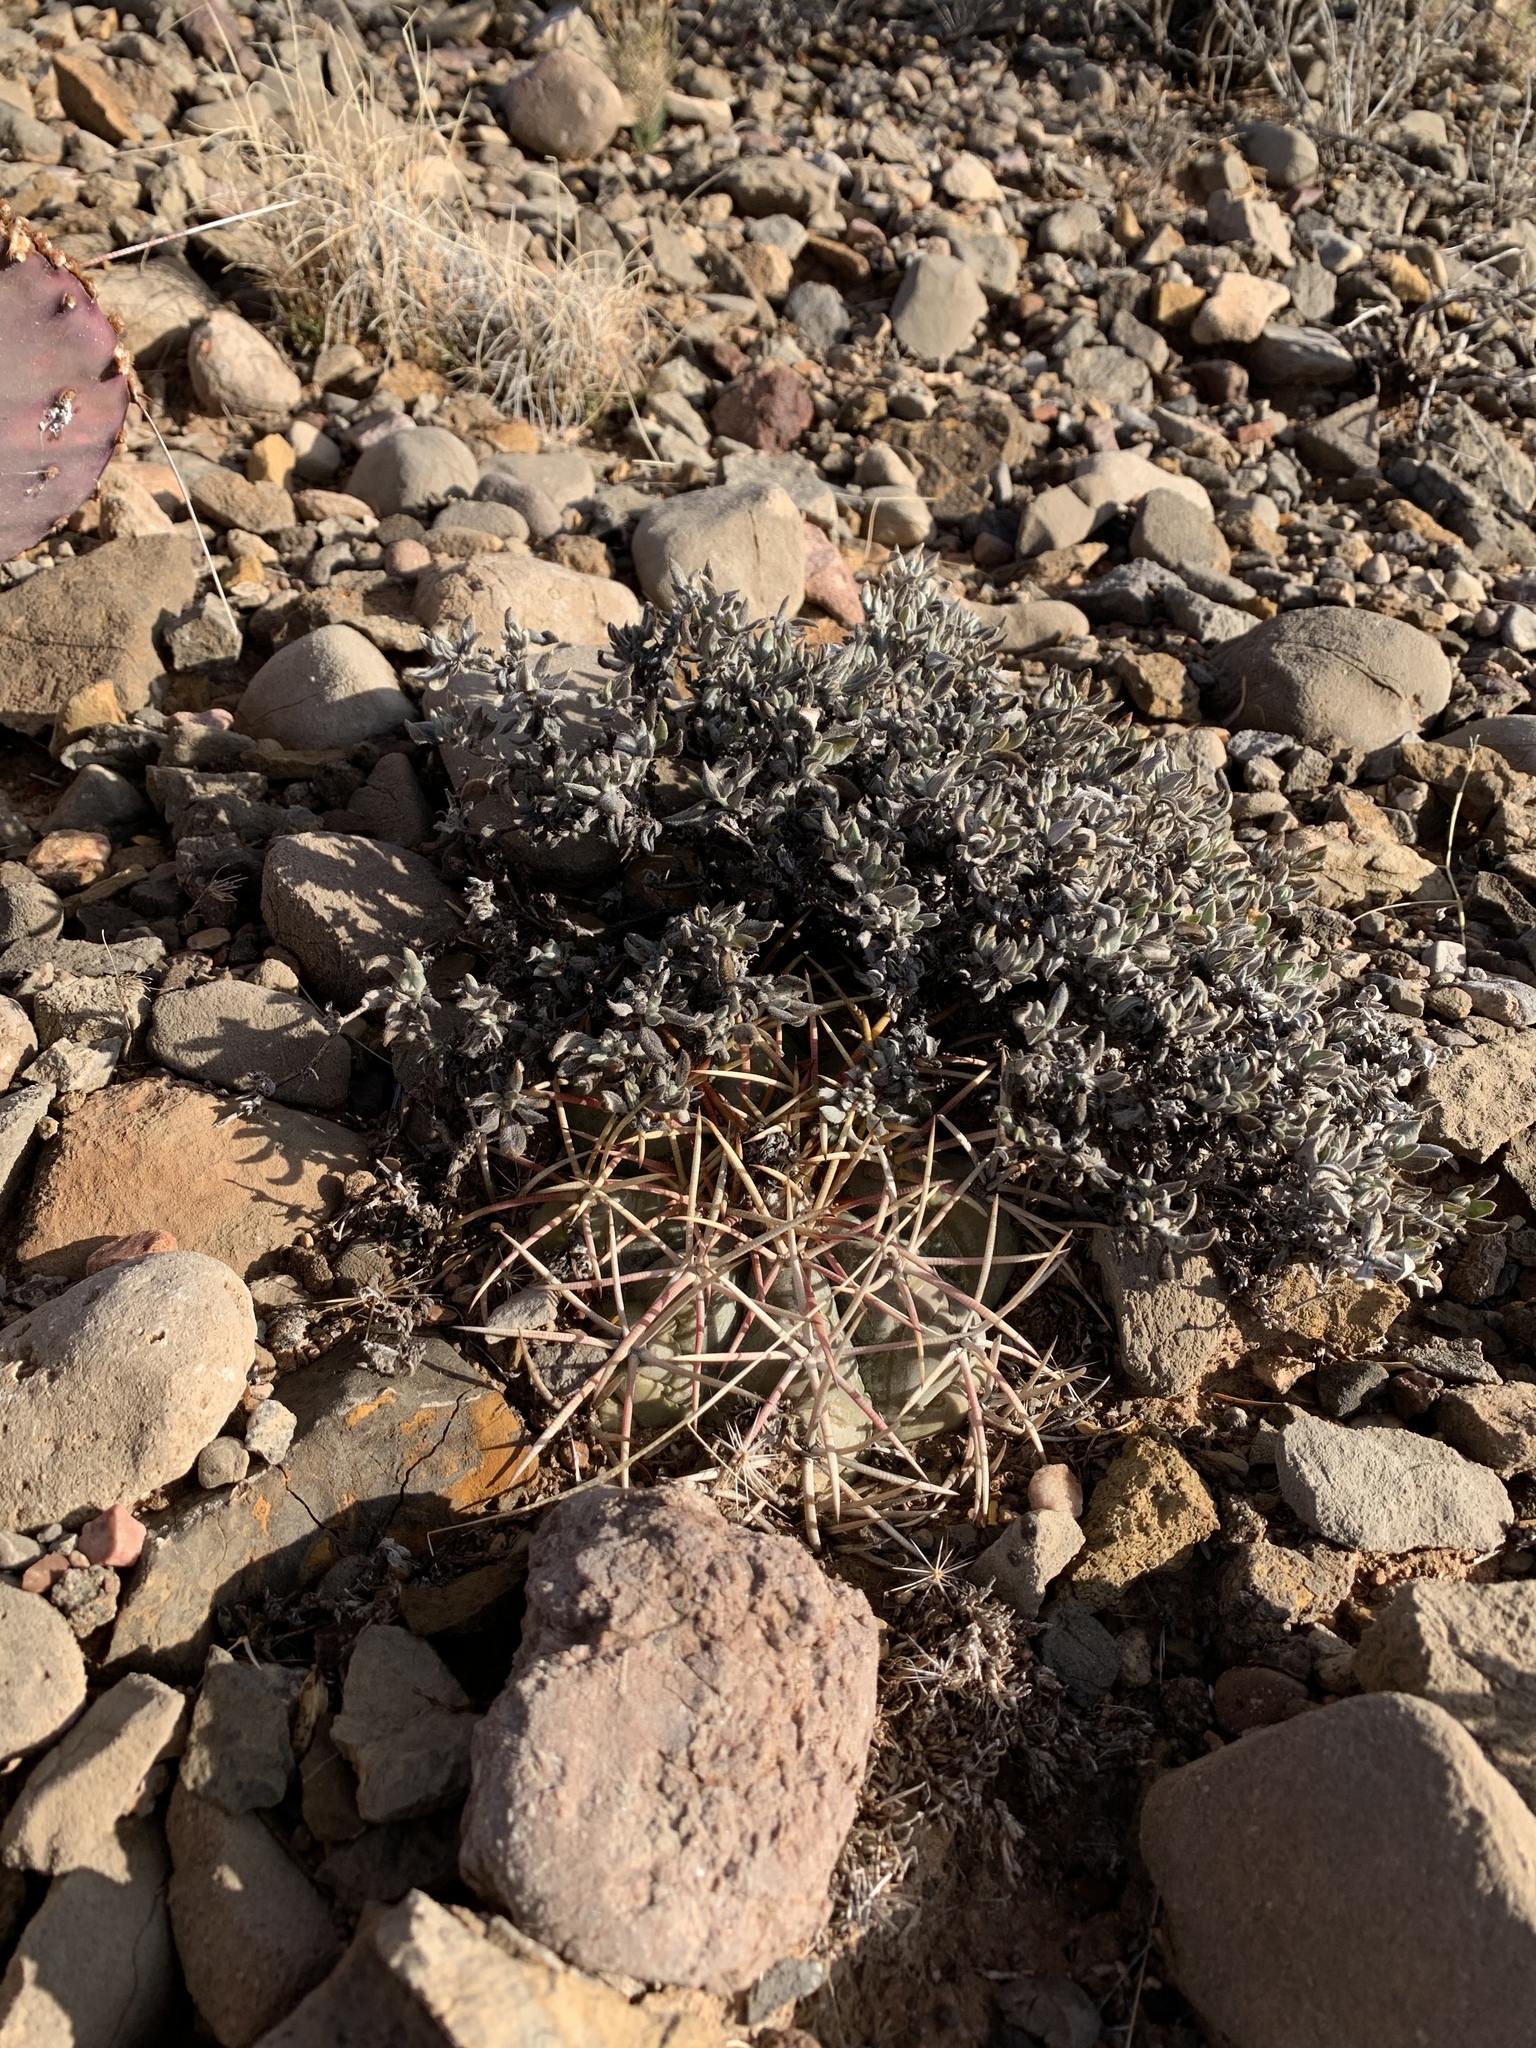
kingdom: Plantae
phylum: Tracheophyta
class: Magnoliopsida
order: Caryophyllales
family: Cactaceae
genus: Echinocactus
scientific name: Echinocactus horizonthalonius
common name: Devilshead
